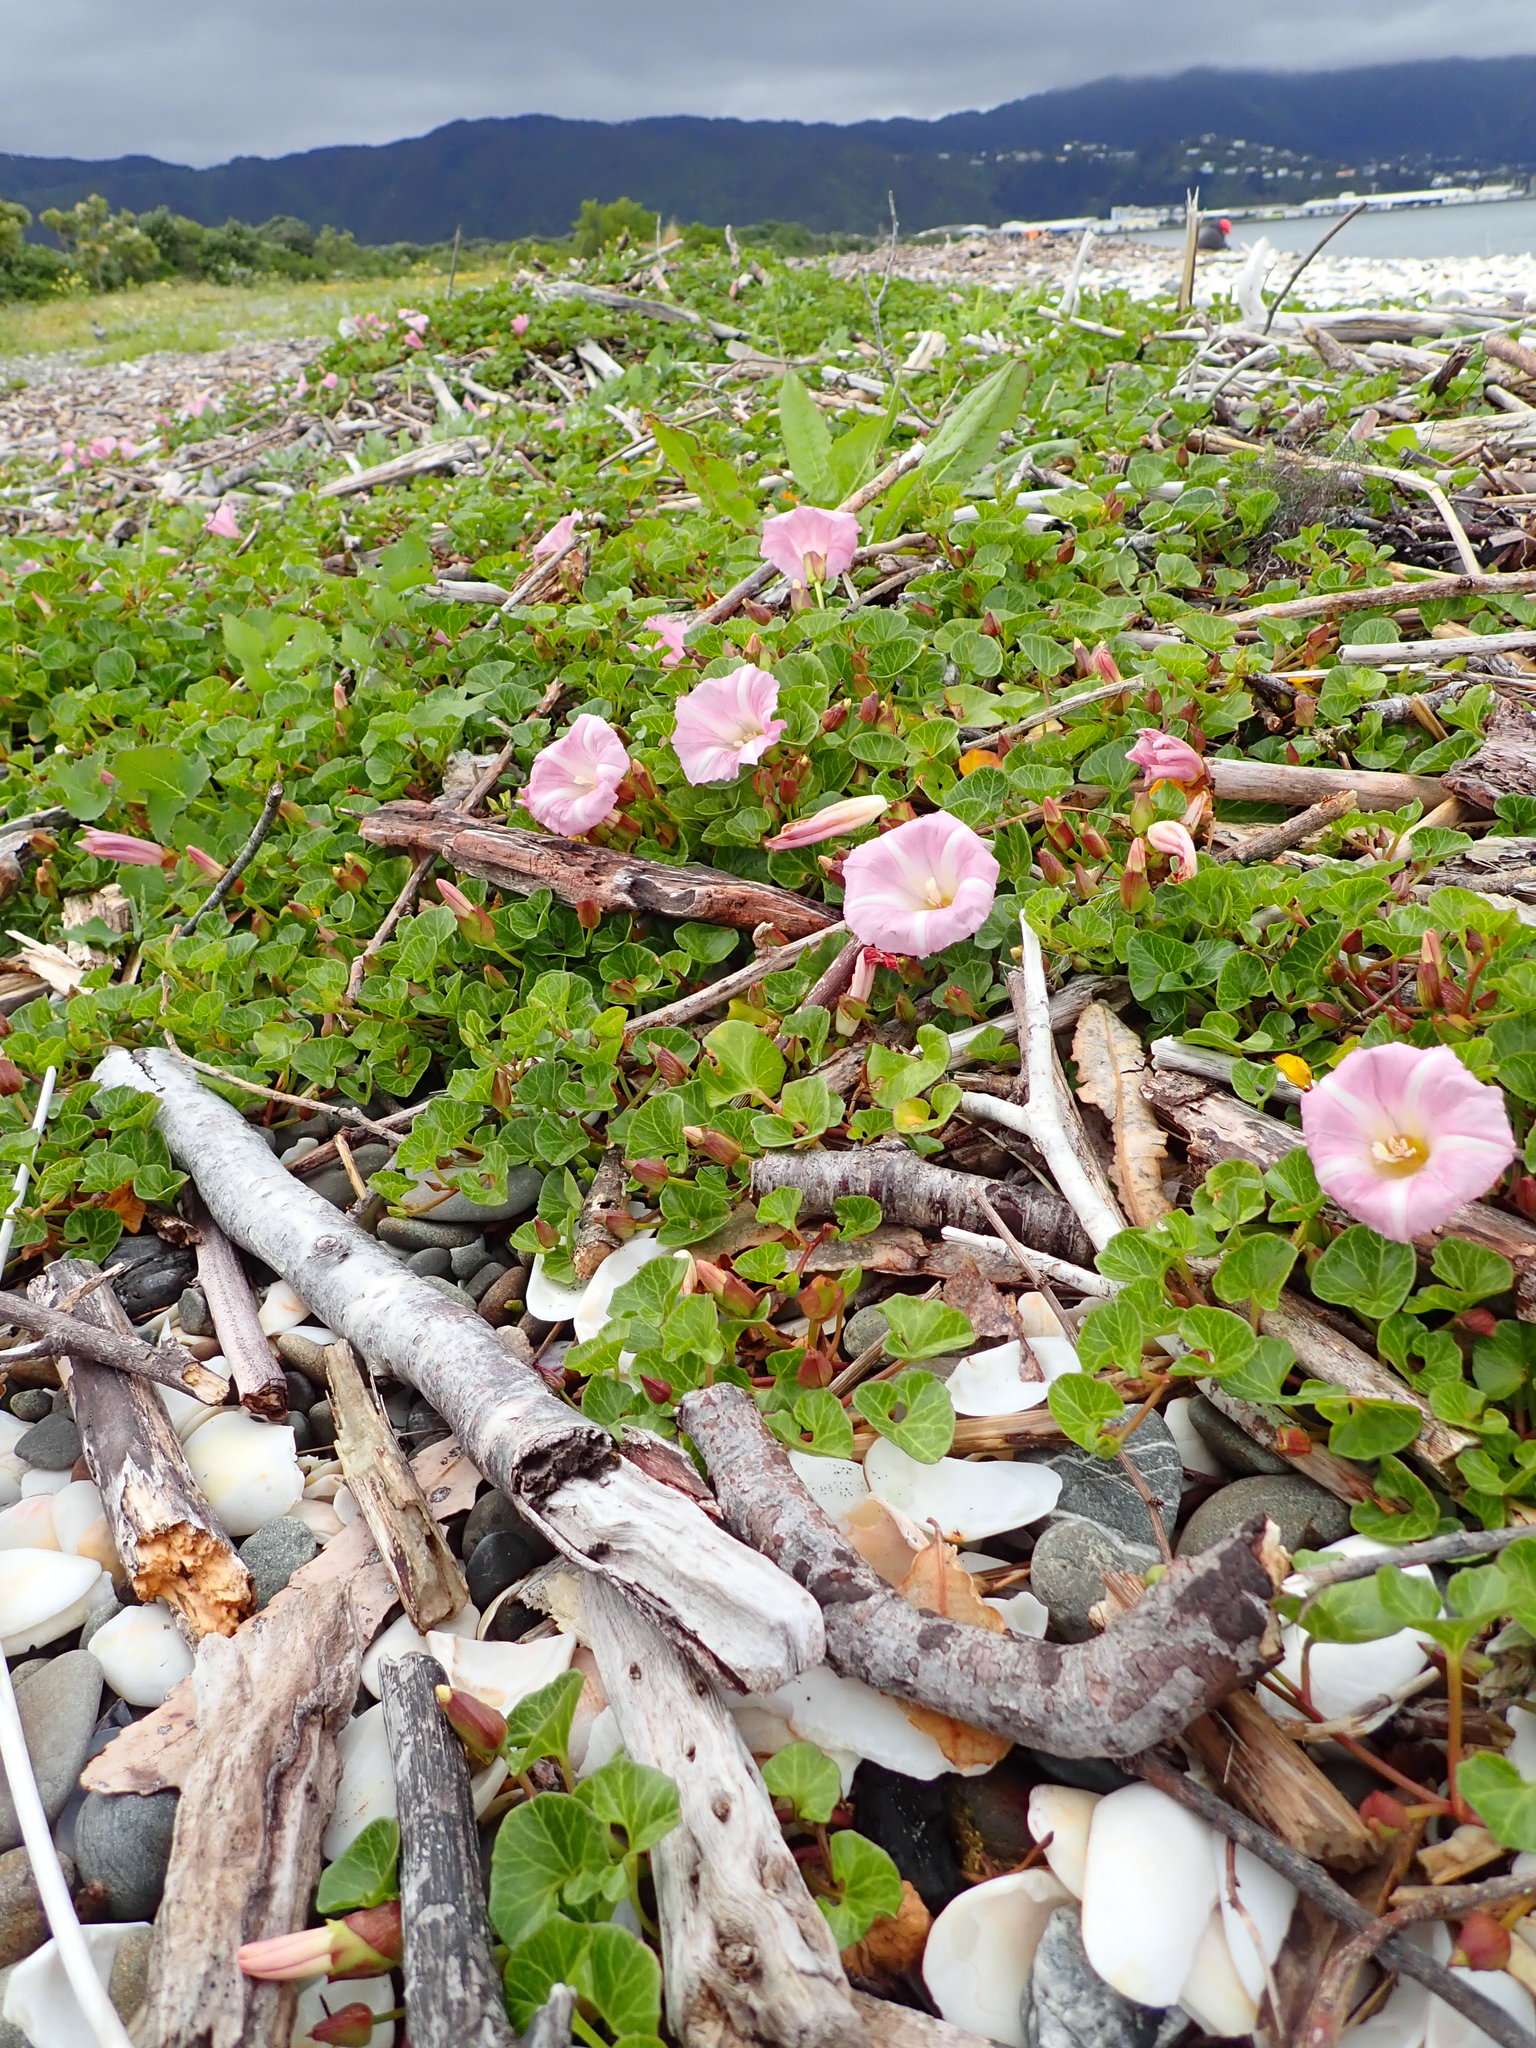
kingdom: Plantae
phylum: Tracheophyta
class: Magnoliopsida
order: Solanales
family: Convolvulaceae
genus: Calystegia
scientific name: Calystegia soldanella
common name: Sea bindweed
